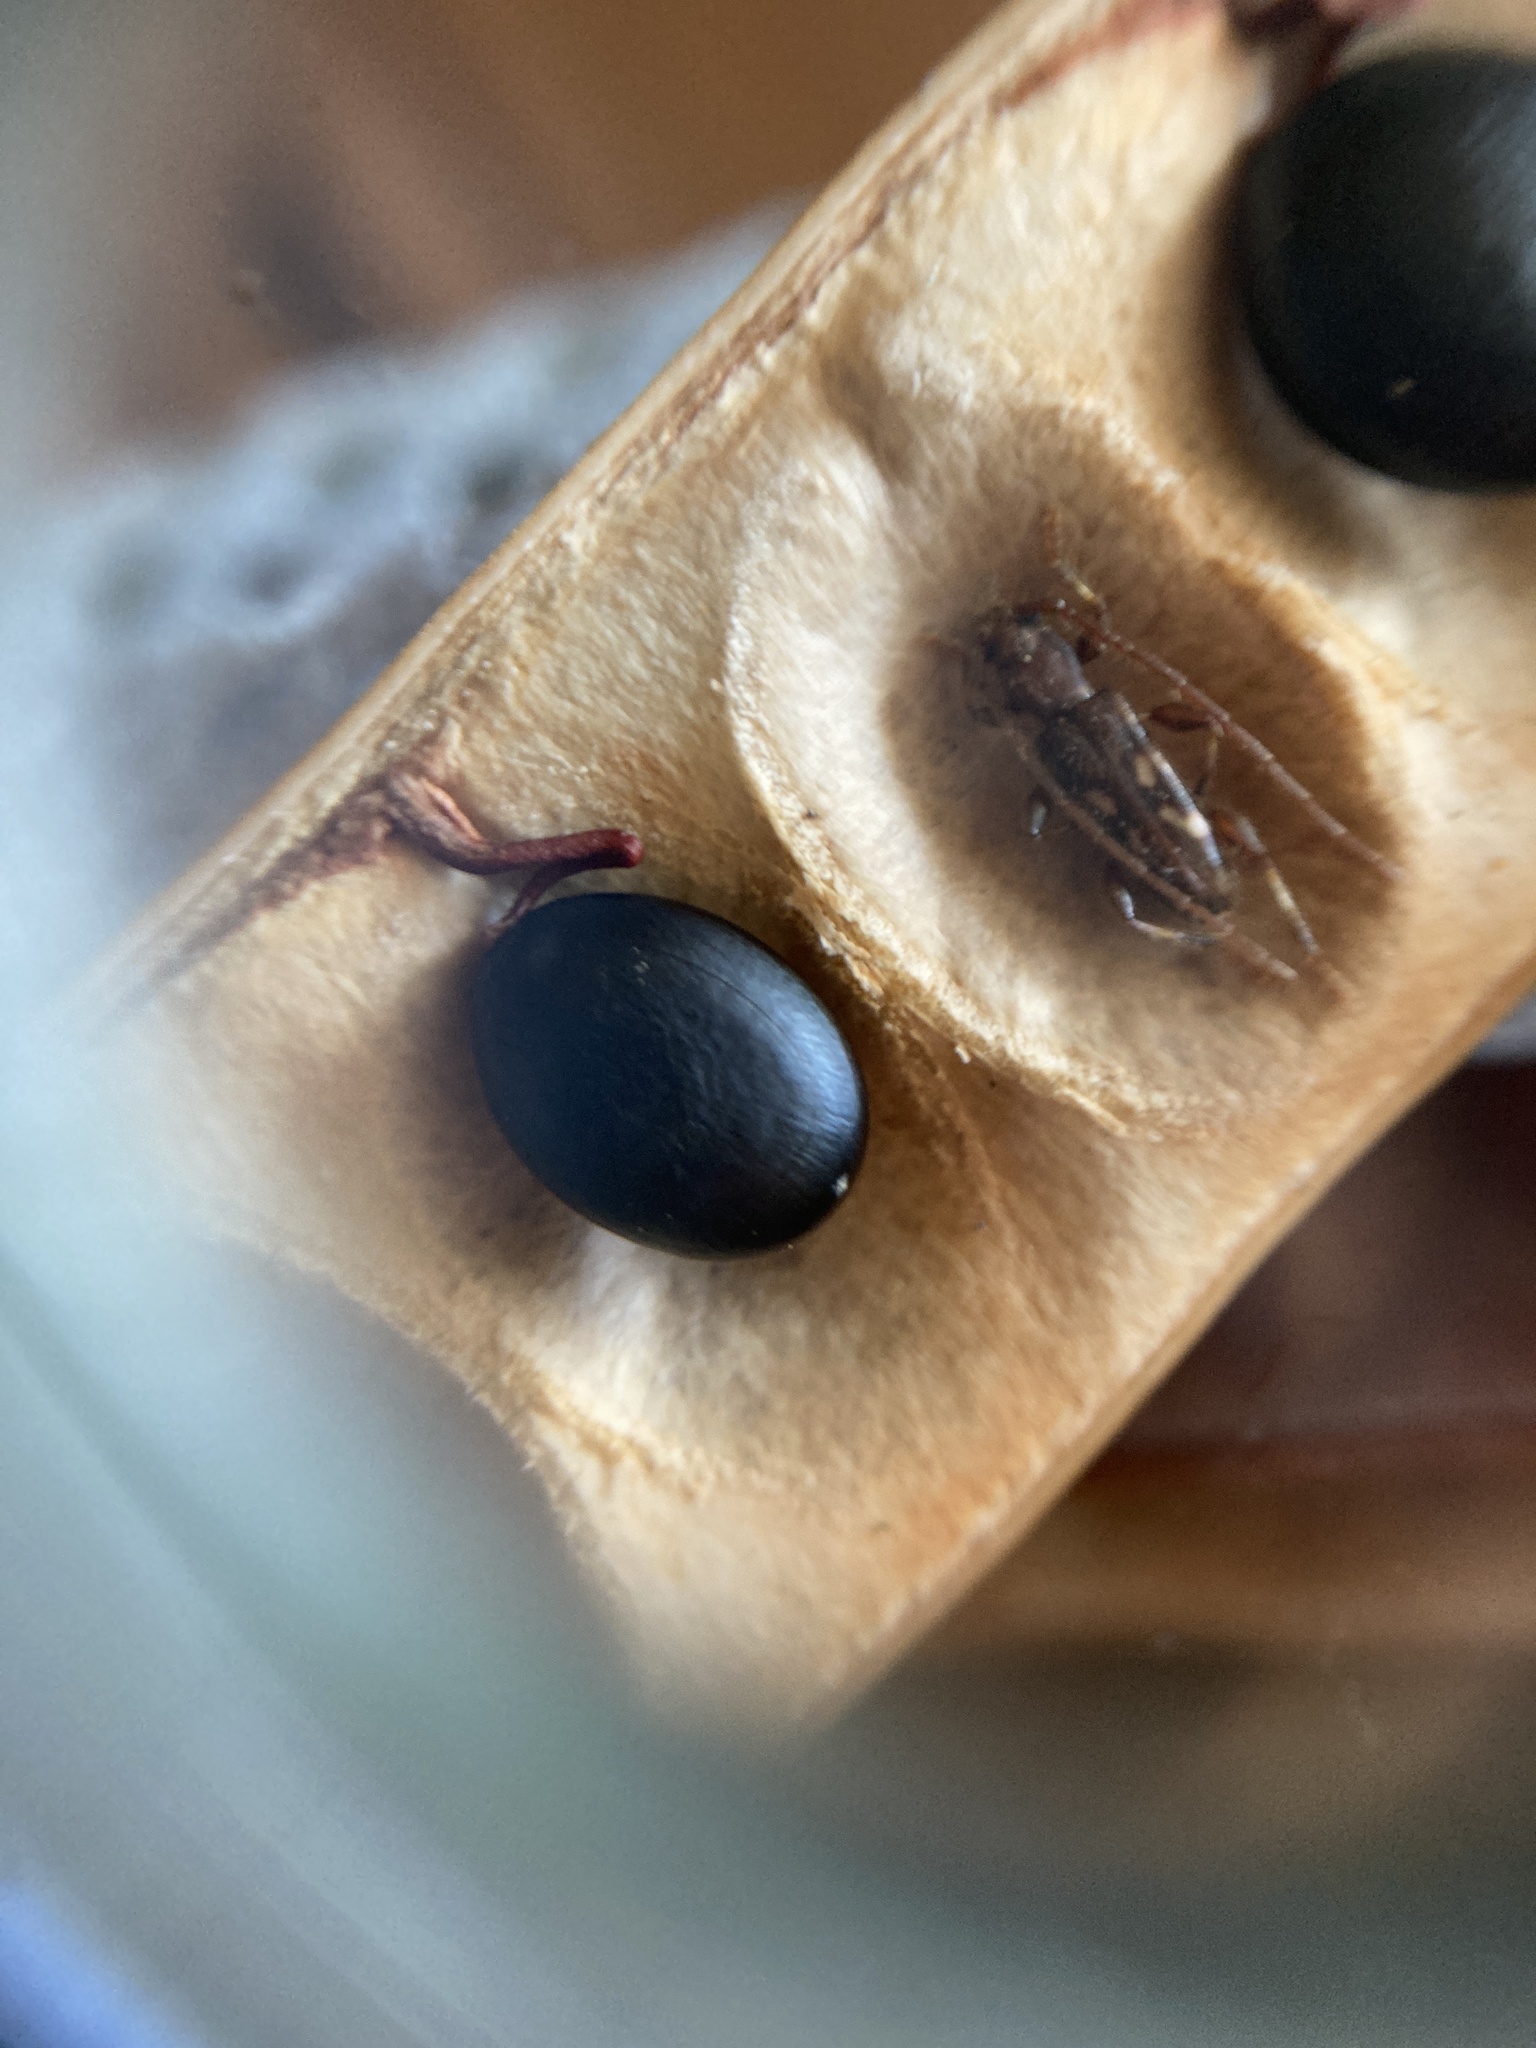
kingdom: Animalia
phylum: Arthropoda
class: Insecta
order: Coleoptera
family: Cerambycidae
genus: Bethelium
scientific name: Bethelium signiferum
